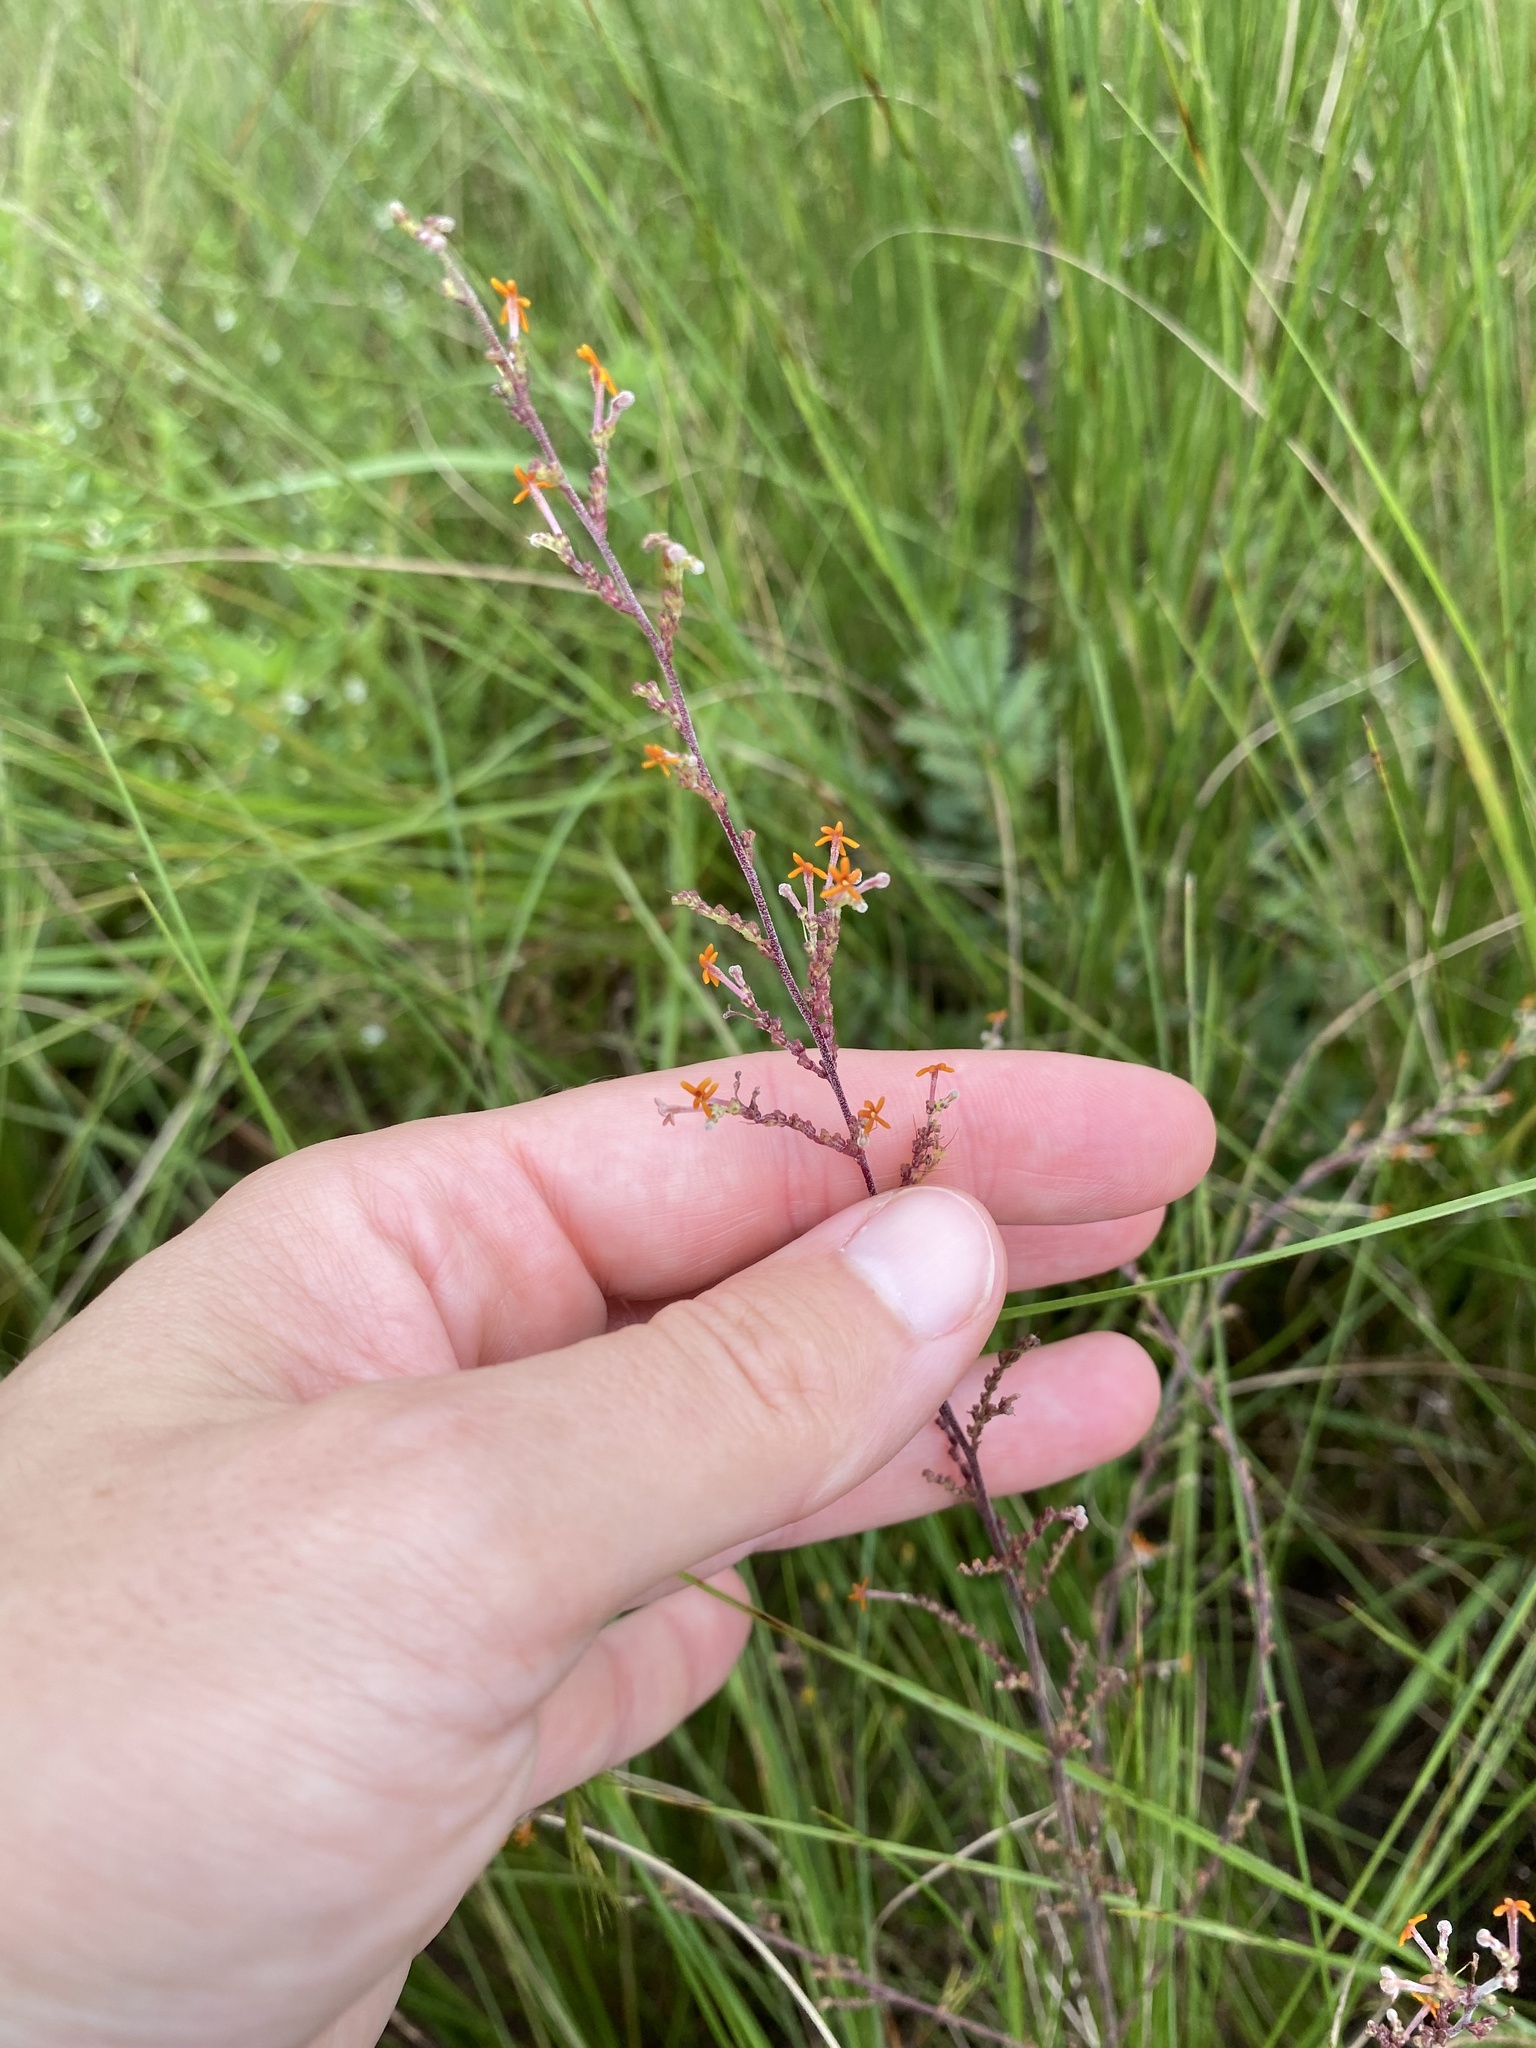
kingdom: Plantae
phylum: Tracheophyta
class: Magnoliopsida
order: Lamiales
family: Scrophulariaceae
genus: Manulea
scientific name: Manulea parviflora
